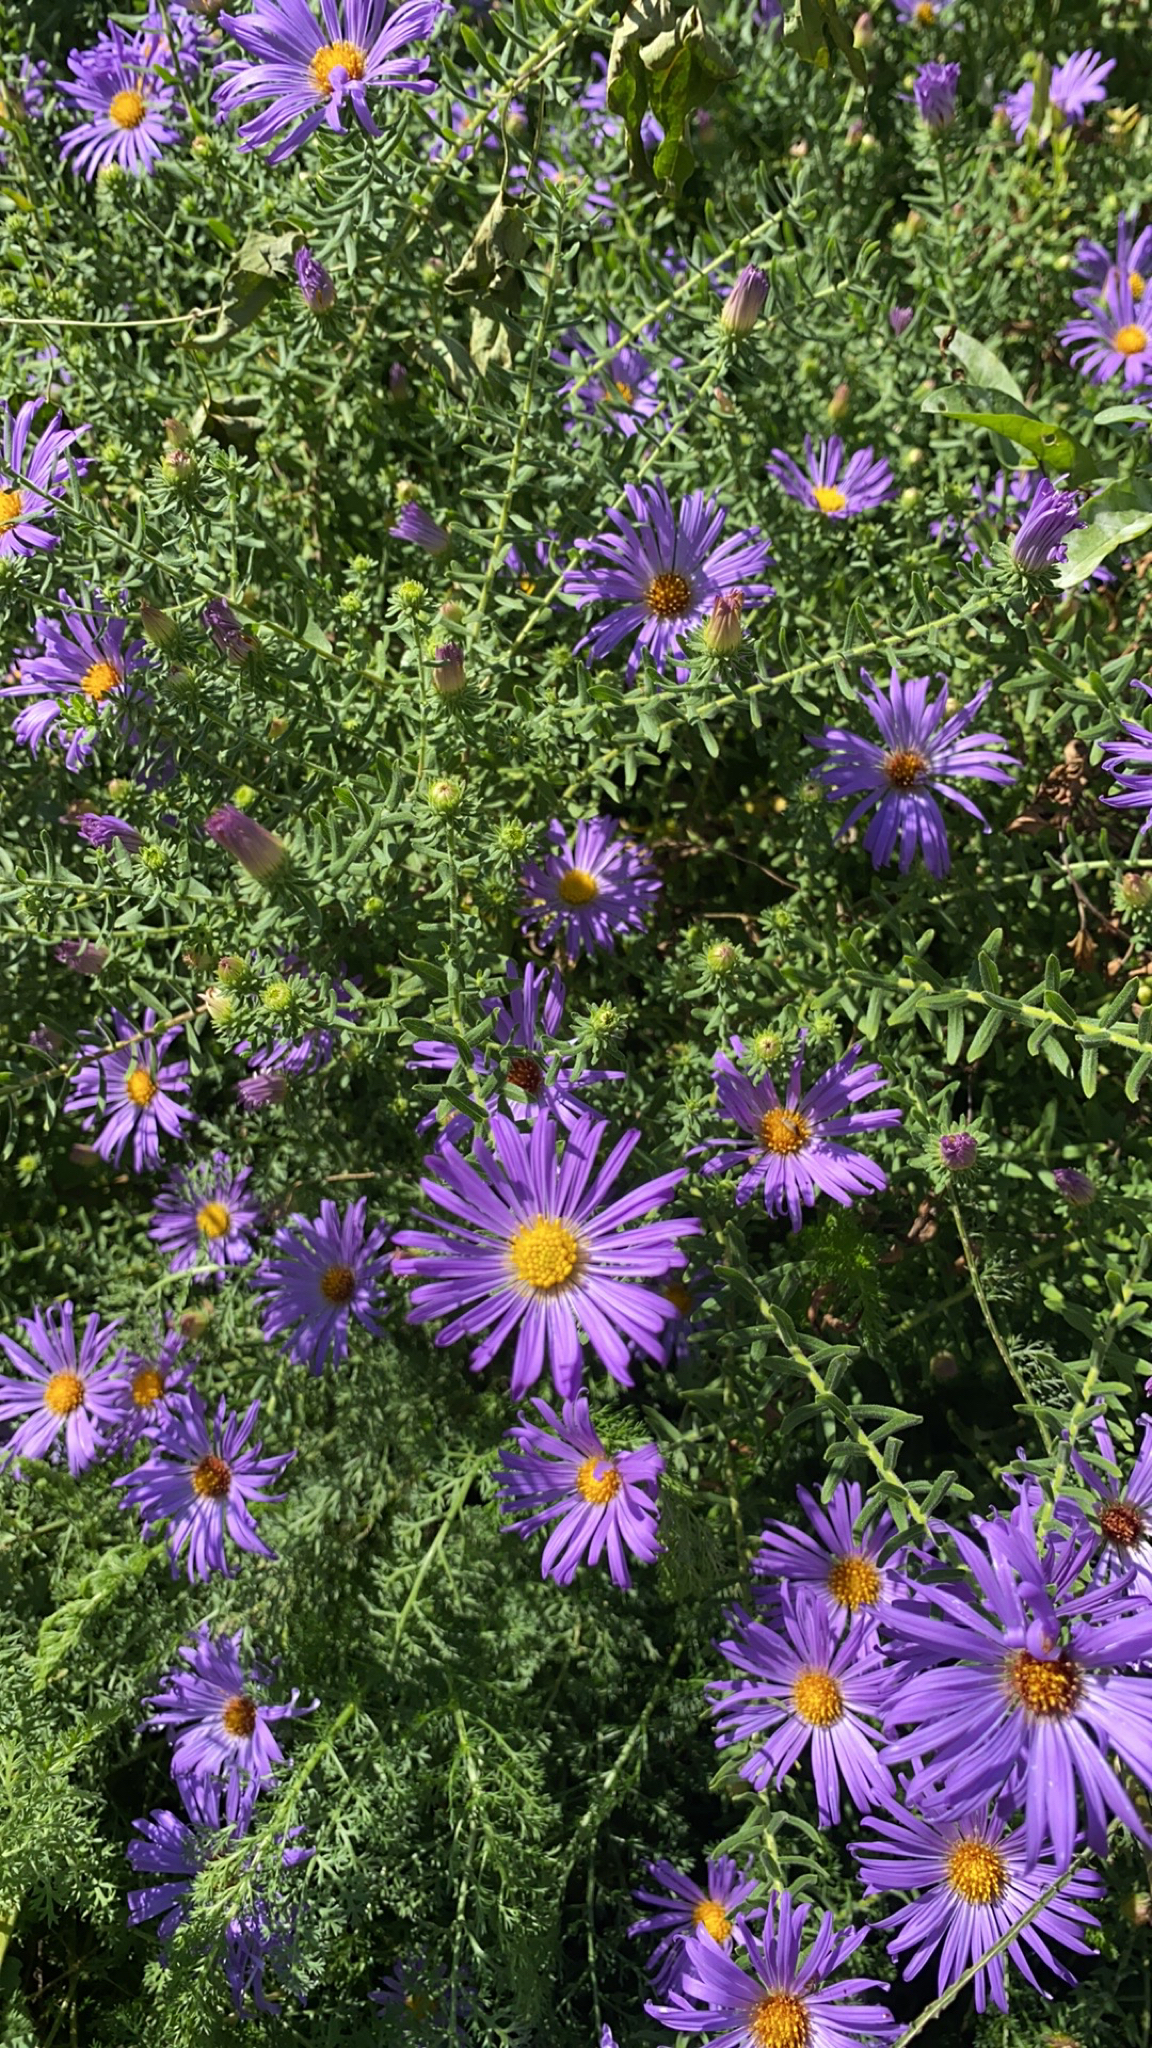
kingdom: Plantae
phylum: Tracheophyta
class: Magnoliopsida
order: Asterales
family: Asteraceae
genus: Symphyotrichum
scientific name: Symphyotrichum oblongifolium
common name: Aromatic aster
